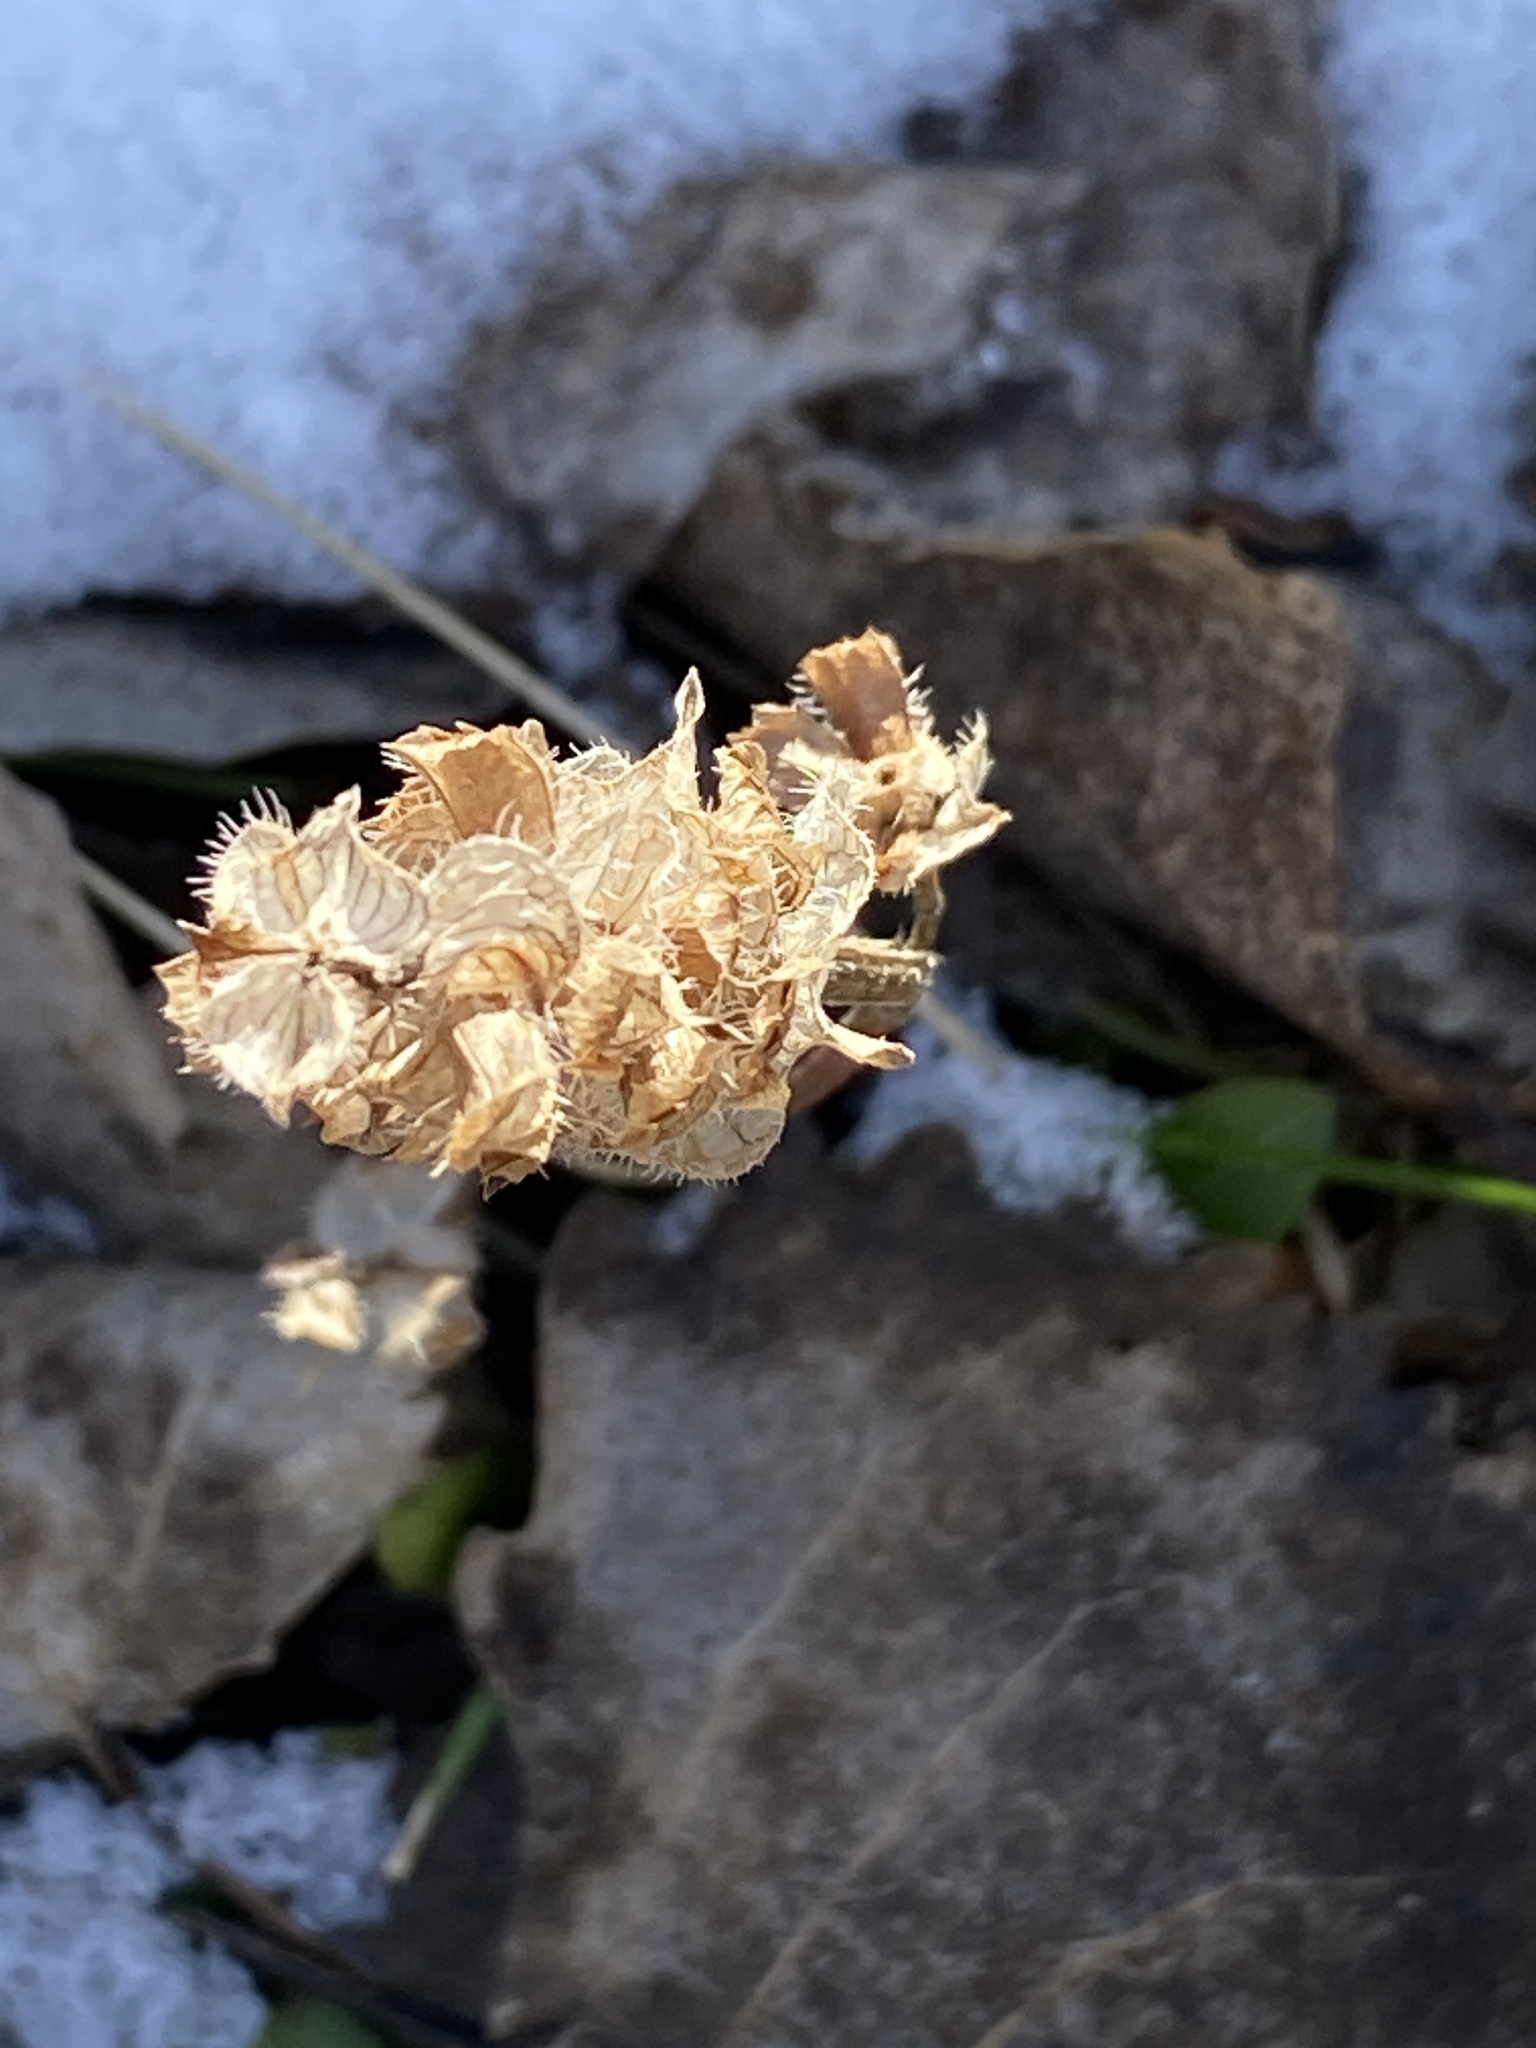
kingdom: Plantae
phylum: Tracheophyta
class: Magnoliopsida
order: Lamiales
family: Lamiaceae
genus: Prunella
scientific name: Prunella vulgaris
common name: Heal-all
